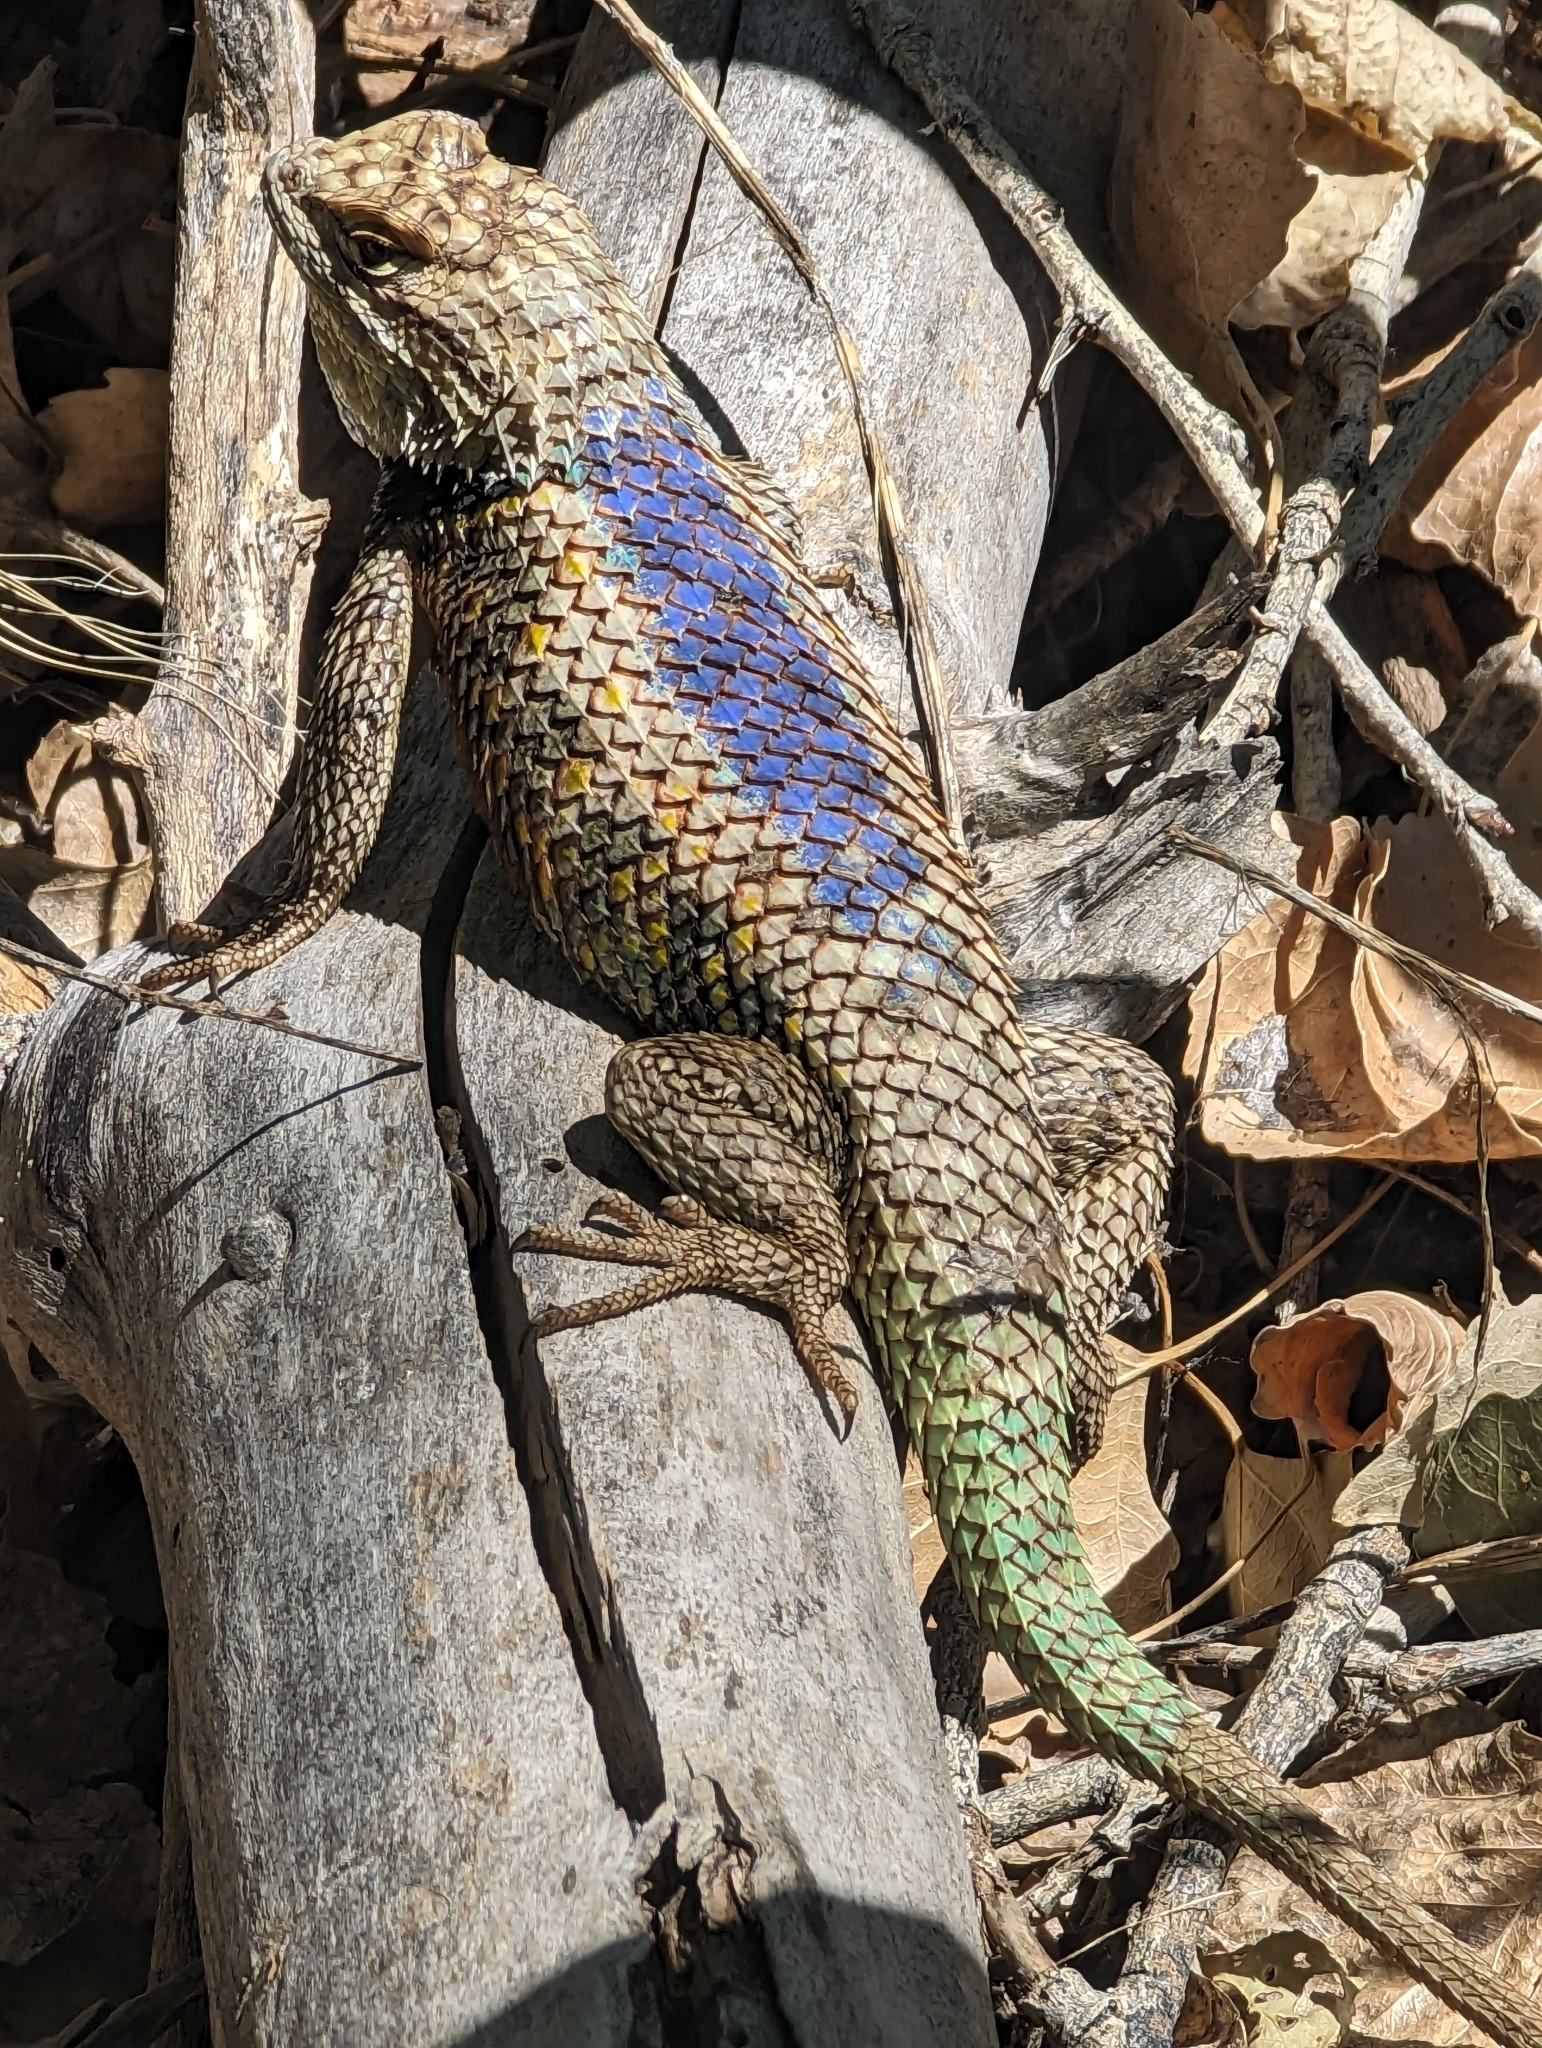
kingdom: Animalia
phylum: Chordata
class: Squamata
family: Phrynosomatidae
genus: Sceloporus
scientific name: Sceloporus magister
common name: Desert spiny lizard
